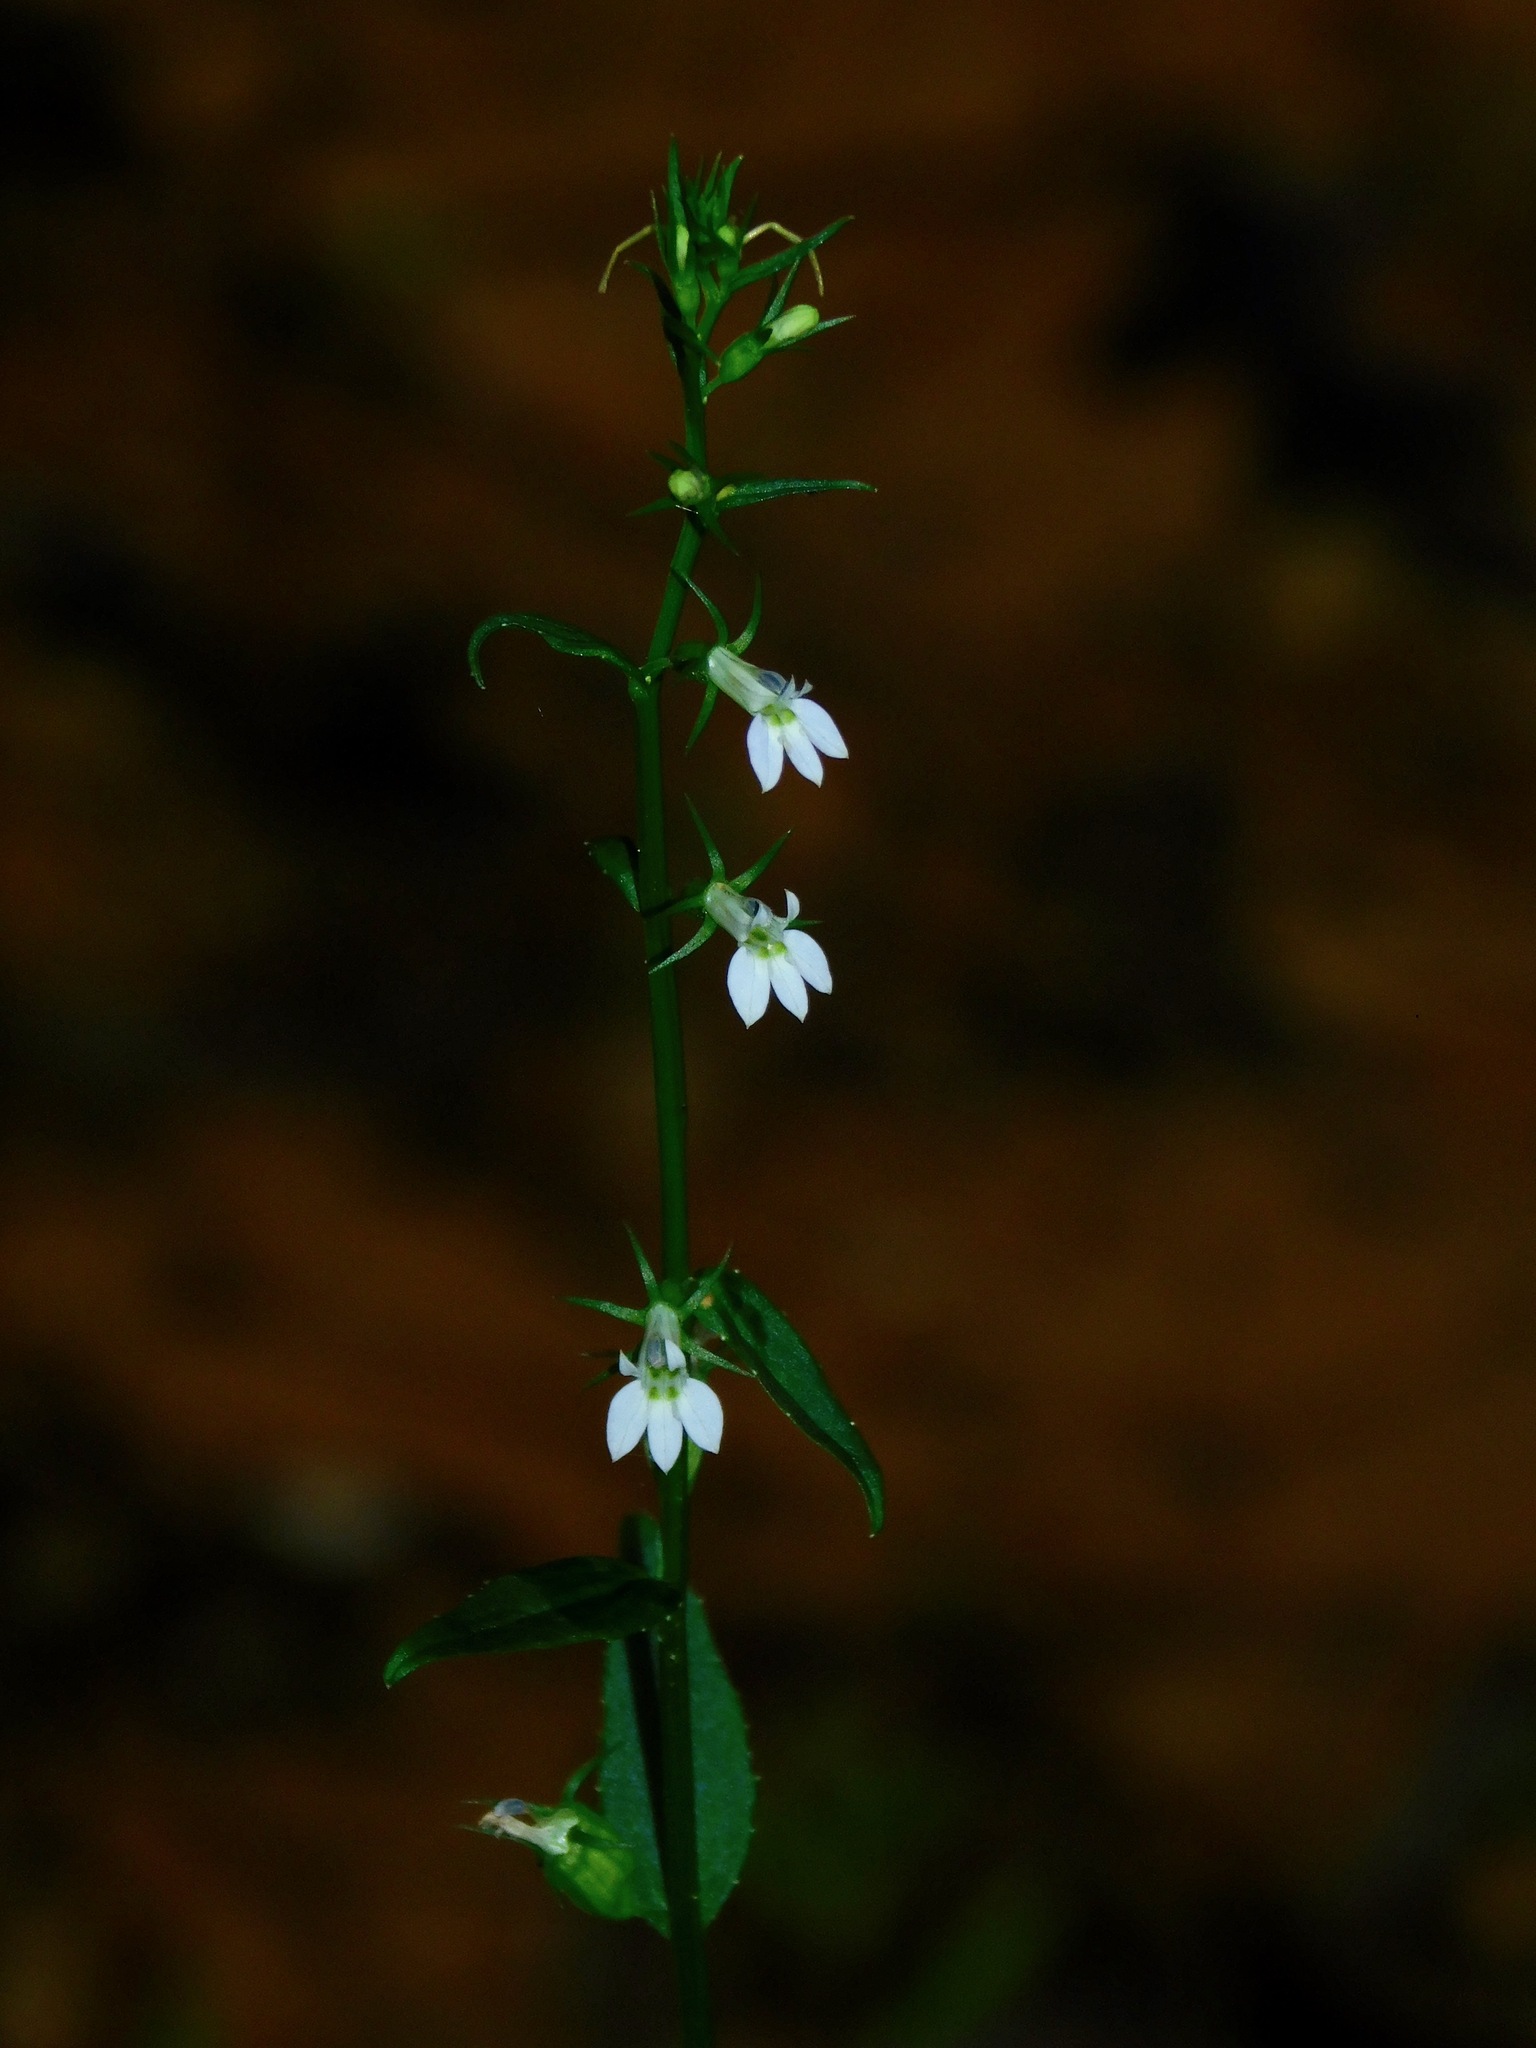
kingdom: Plantae
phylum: Tracheophyta
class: Magnoliopsida
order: Asterales
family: Campanulaceae
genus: Lobelia
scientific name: Lobelia inflata
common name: Indian tobacco
